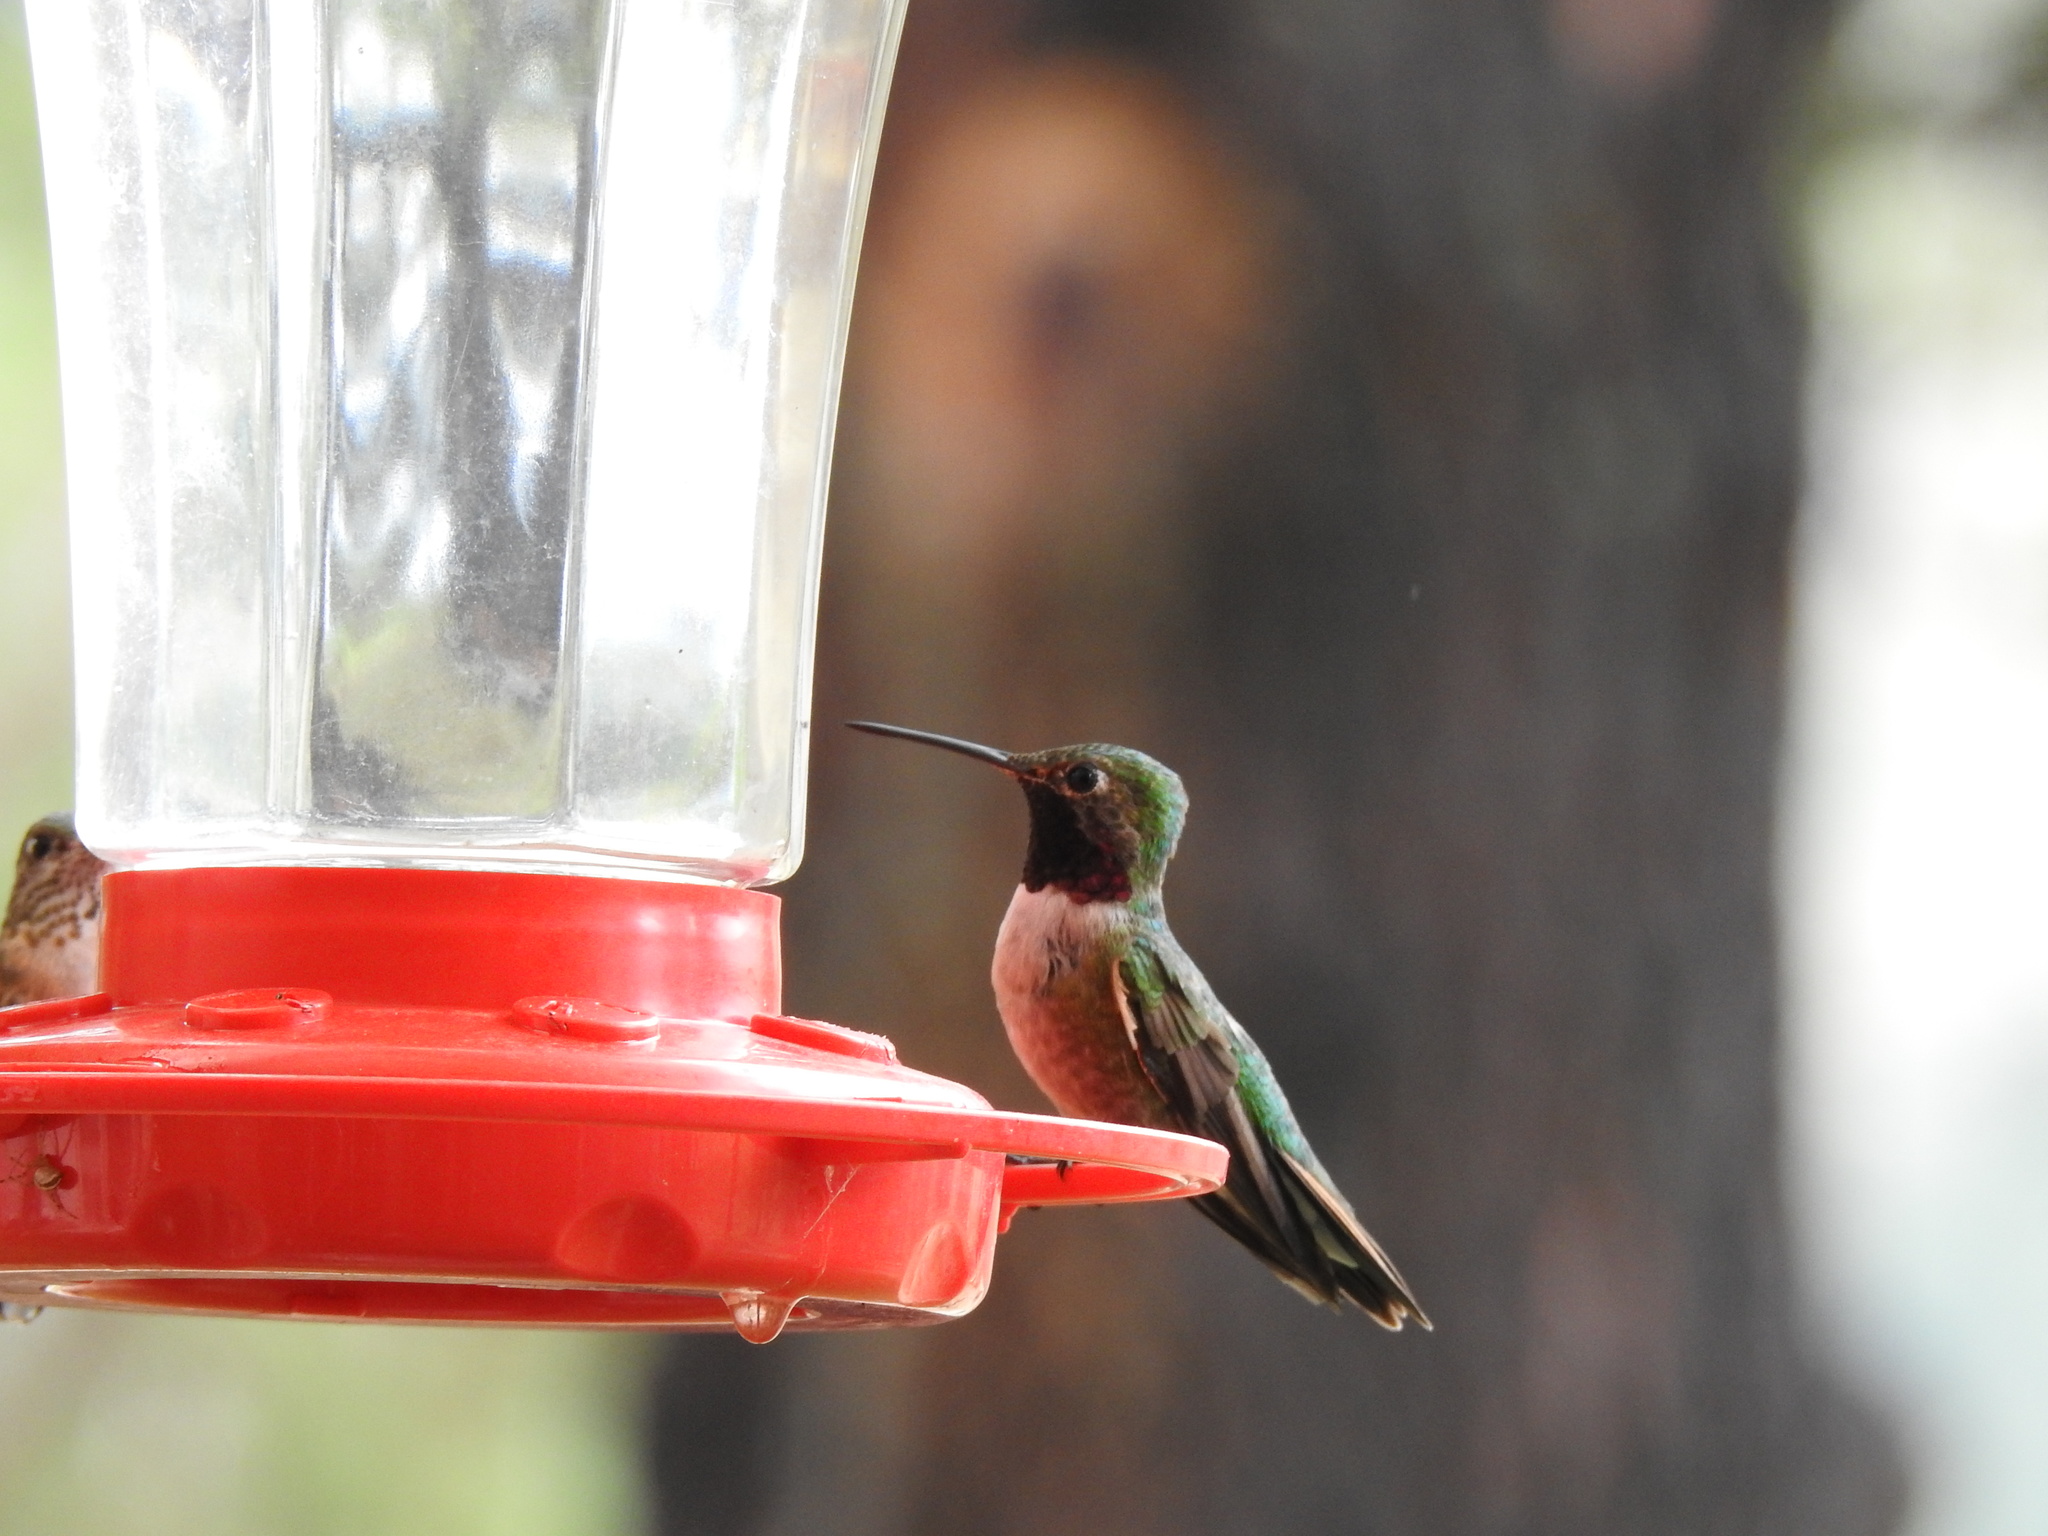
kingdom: Animalia
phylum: Chordata
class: Aves
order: Apodiformes
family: Trochilidae
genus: Selasphorus
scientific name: Selasphorus platycercus
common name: Broad-tailed hummingbird
